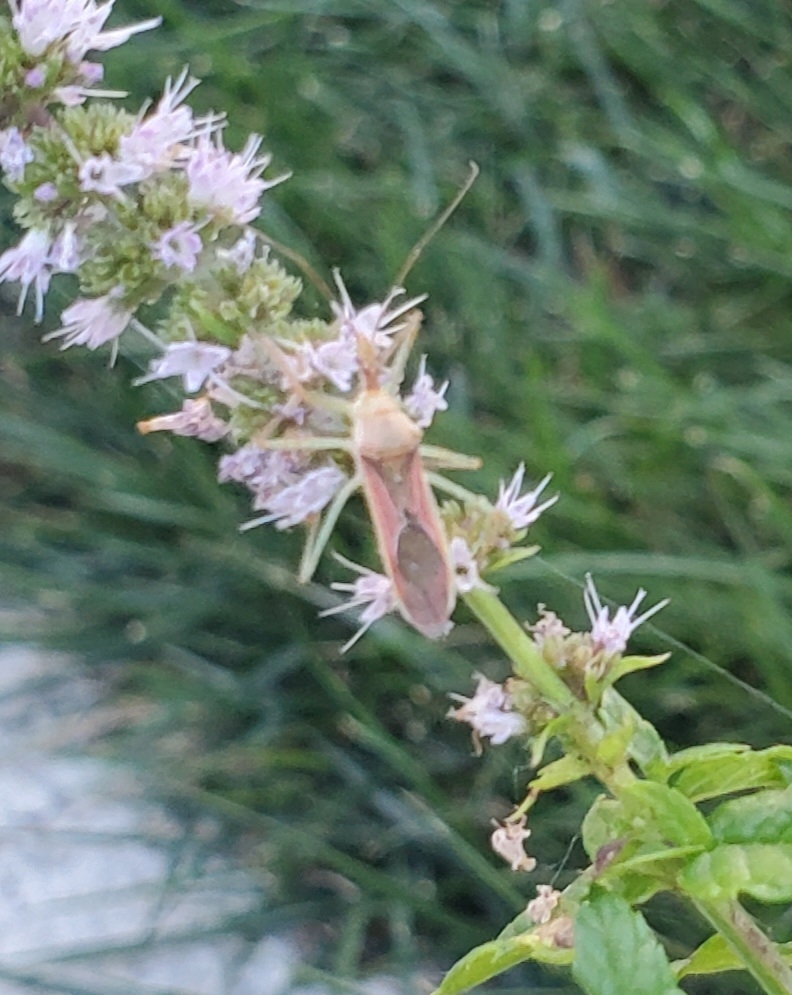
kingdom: Animalia
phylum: Arthropoda
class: Insecta
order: Hemiptera
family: Reduviidae
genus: Zelus
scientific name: Zelus renardii
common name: Assassin bug
